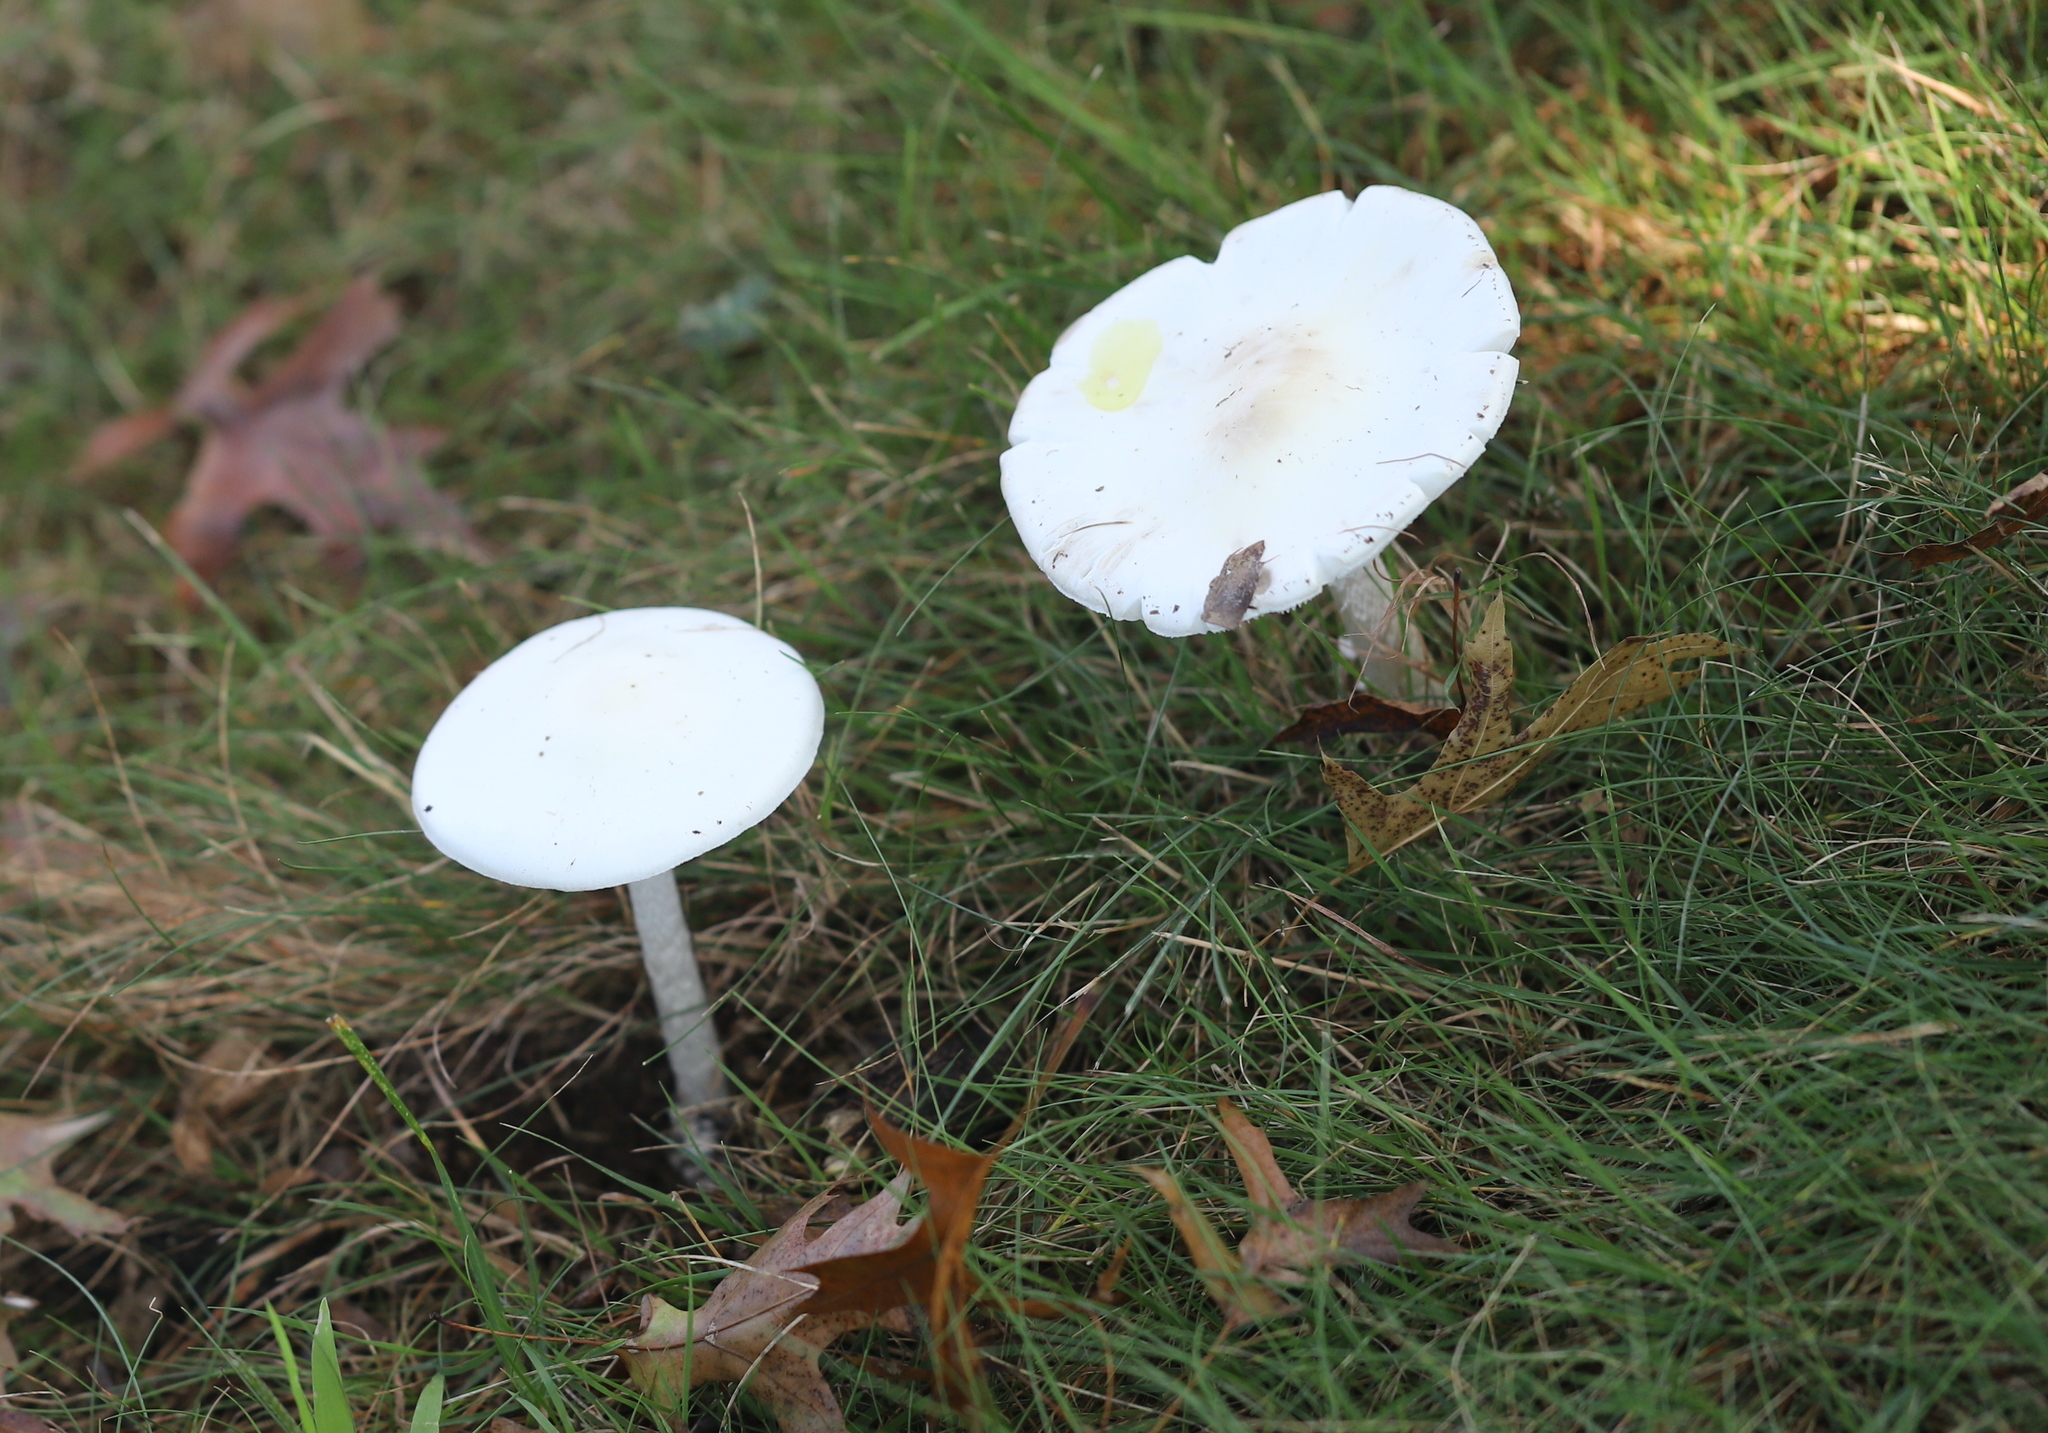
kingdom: Fungi
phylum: Basidiomycota
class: Agaricomycetes
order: Agaricales
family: Amanitaceae
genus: Amanita
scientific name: Amanita bisporigera
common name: Eastern north american destroying angel
